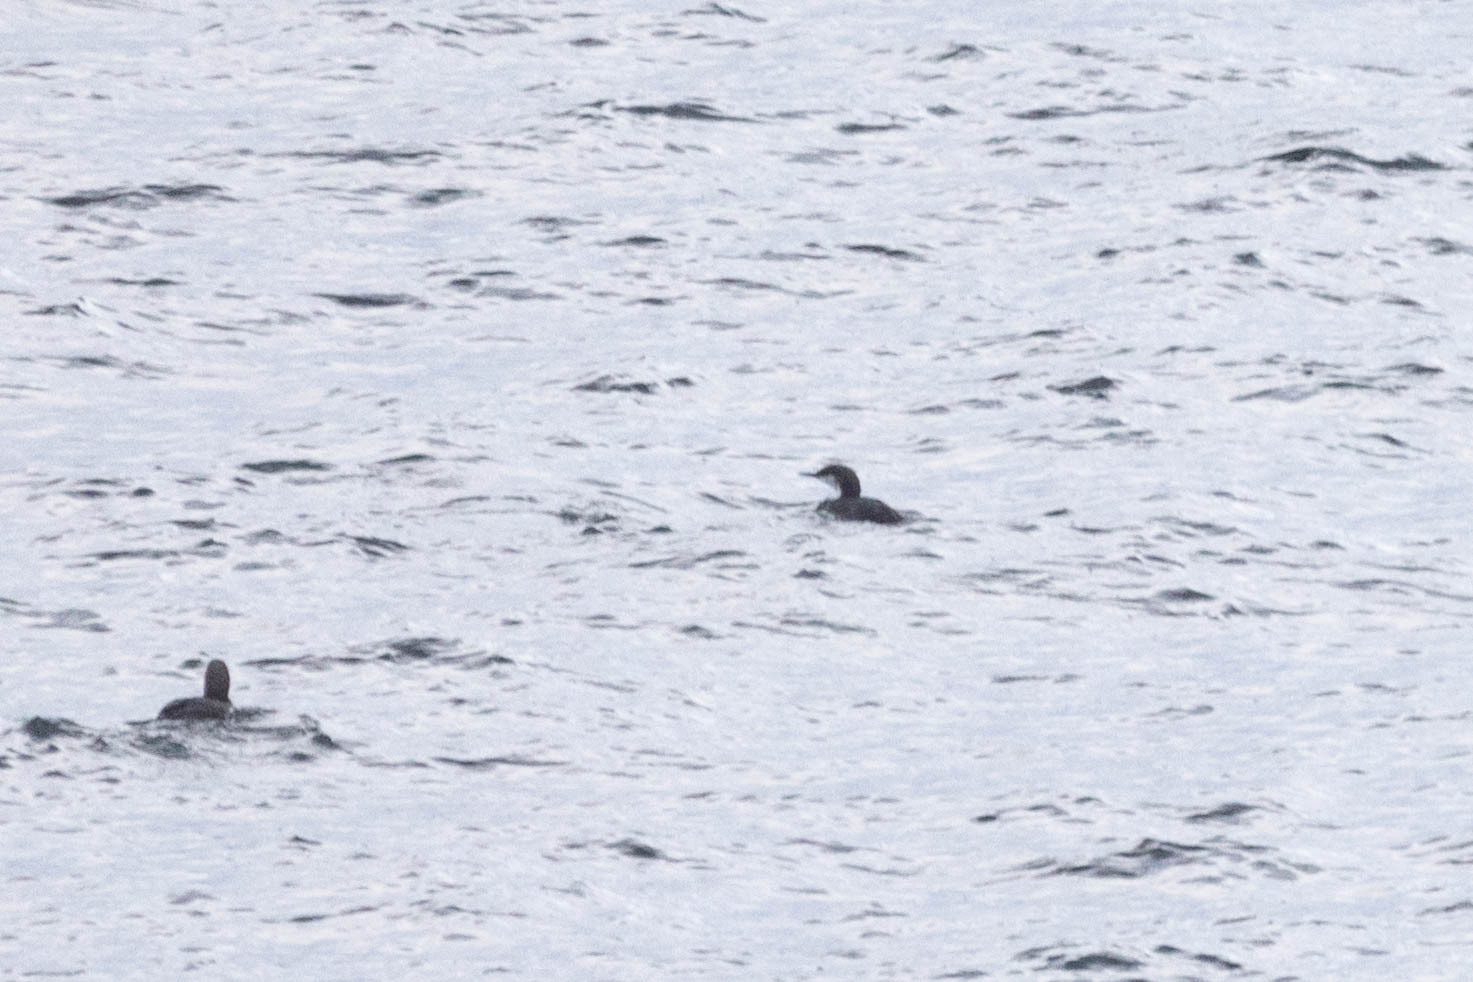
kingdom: Animalia
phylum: Chordata
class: Aves
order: Gaviiformes
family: Gaviidae
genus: Gavia
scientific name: Gavia pacifica
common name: Pacific loon
